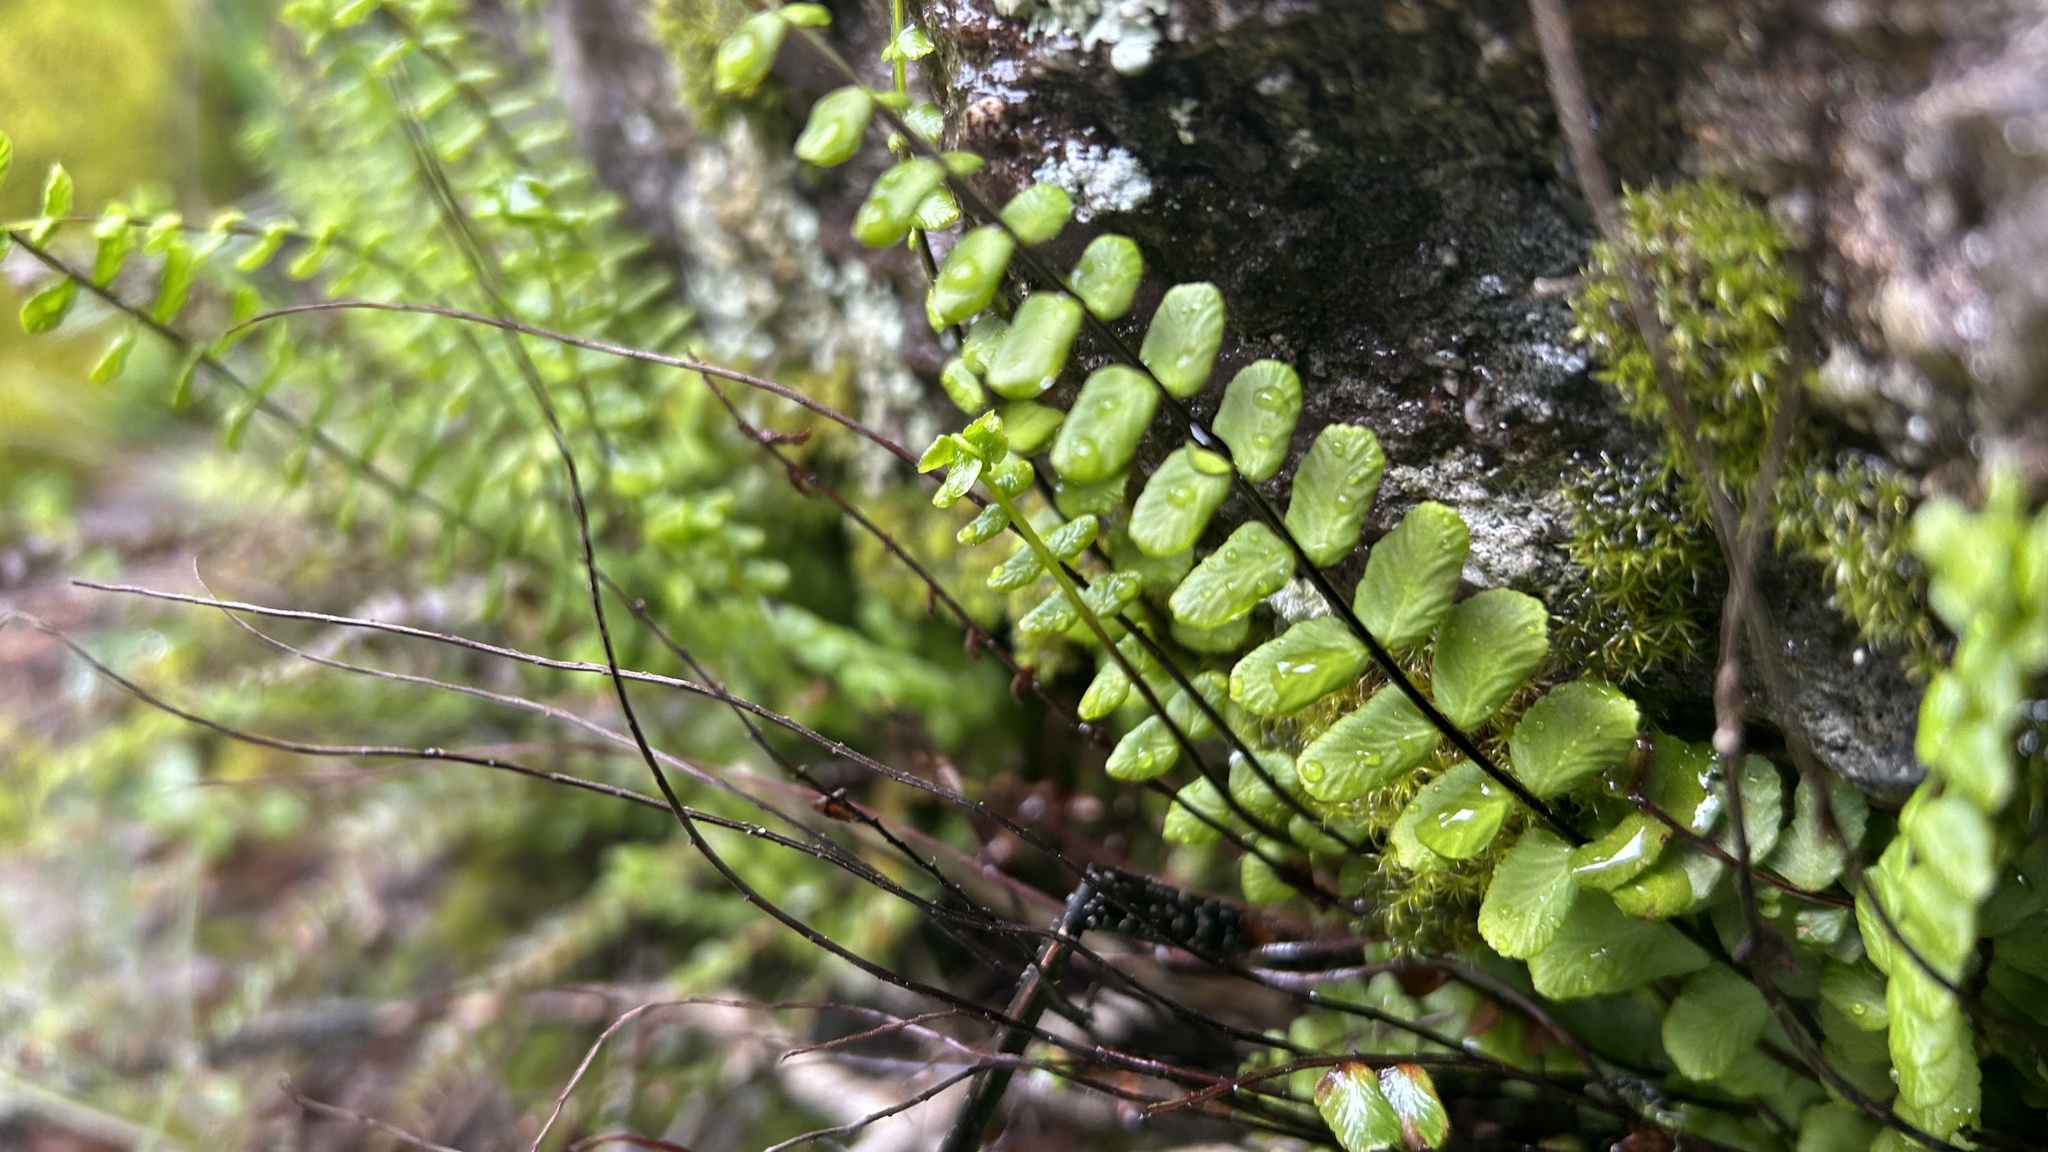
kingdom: Plantae
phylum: Tracheophyta
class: Polypodiopsida
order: Polypodiales
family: Aspleniaceae
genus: Asplenium
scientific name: Asplenium trichomanes
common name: Maidenhair spleenwort
